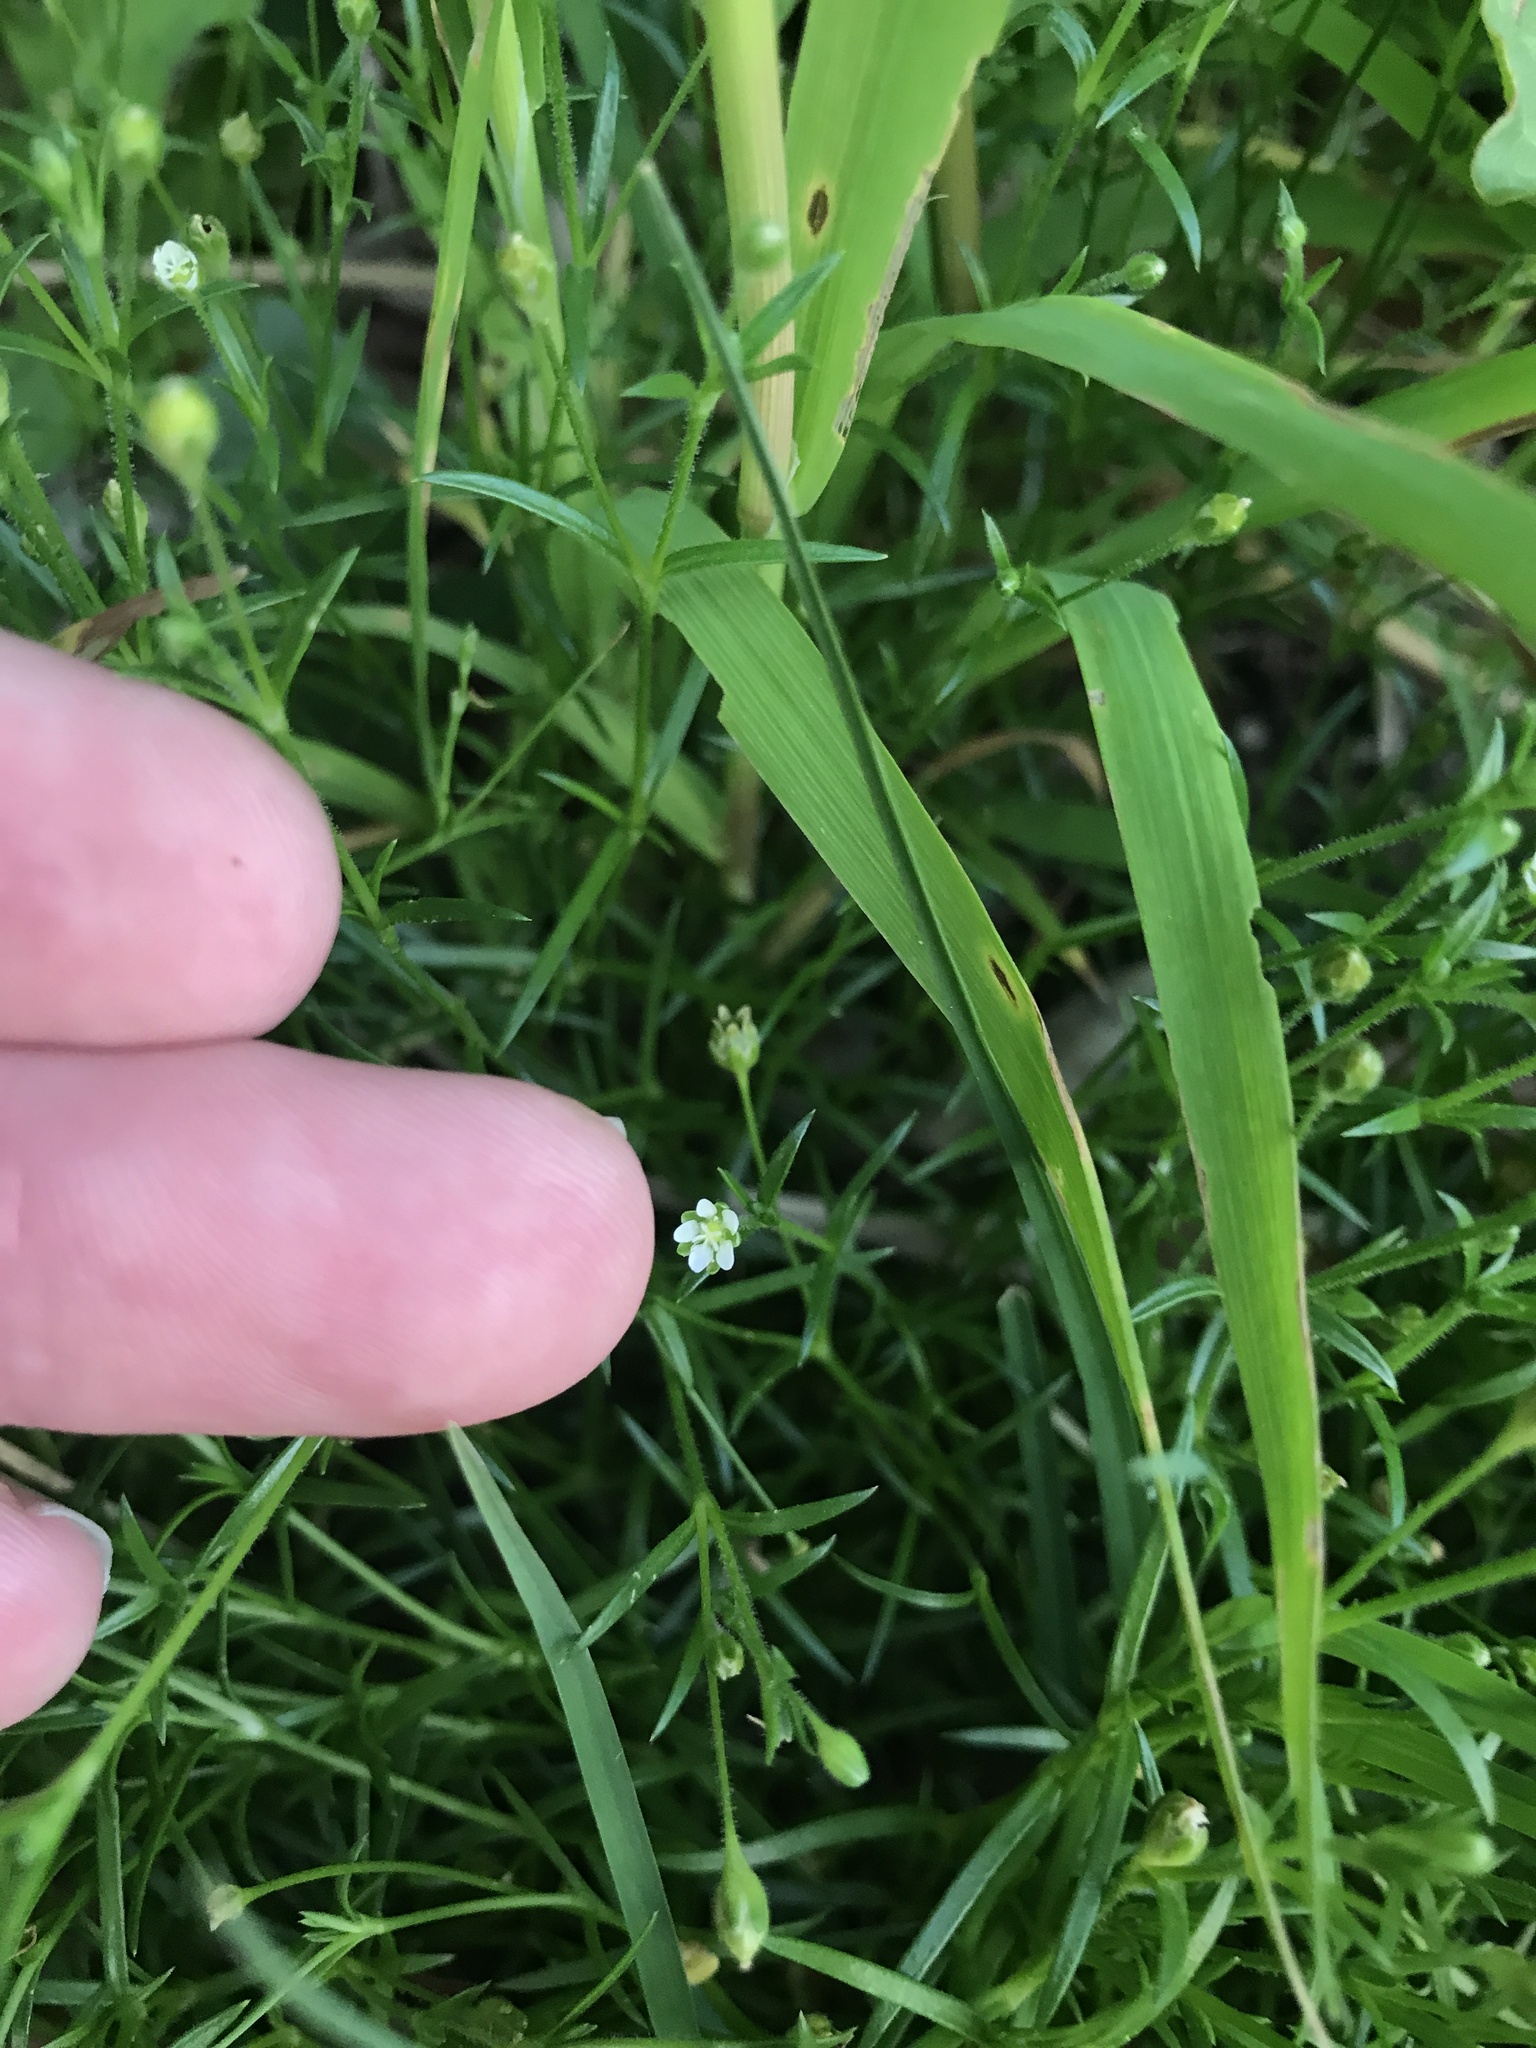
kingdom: Plantae
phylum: Tracheophyta
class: Magnoliopsida
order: Caryophyllales
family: Caryophyllaceae
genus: Sagina
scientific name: Sagina japonica
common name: Japanese pearlwort
